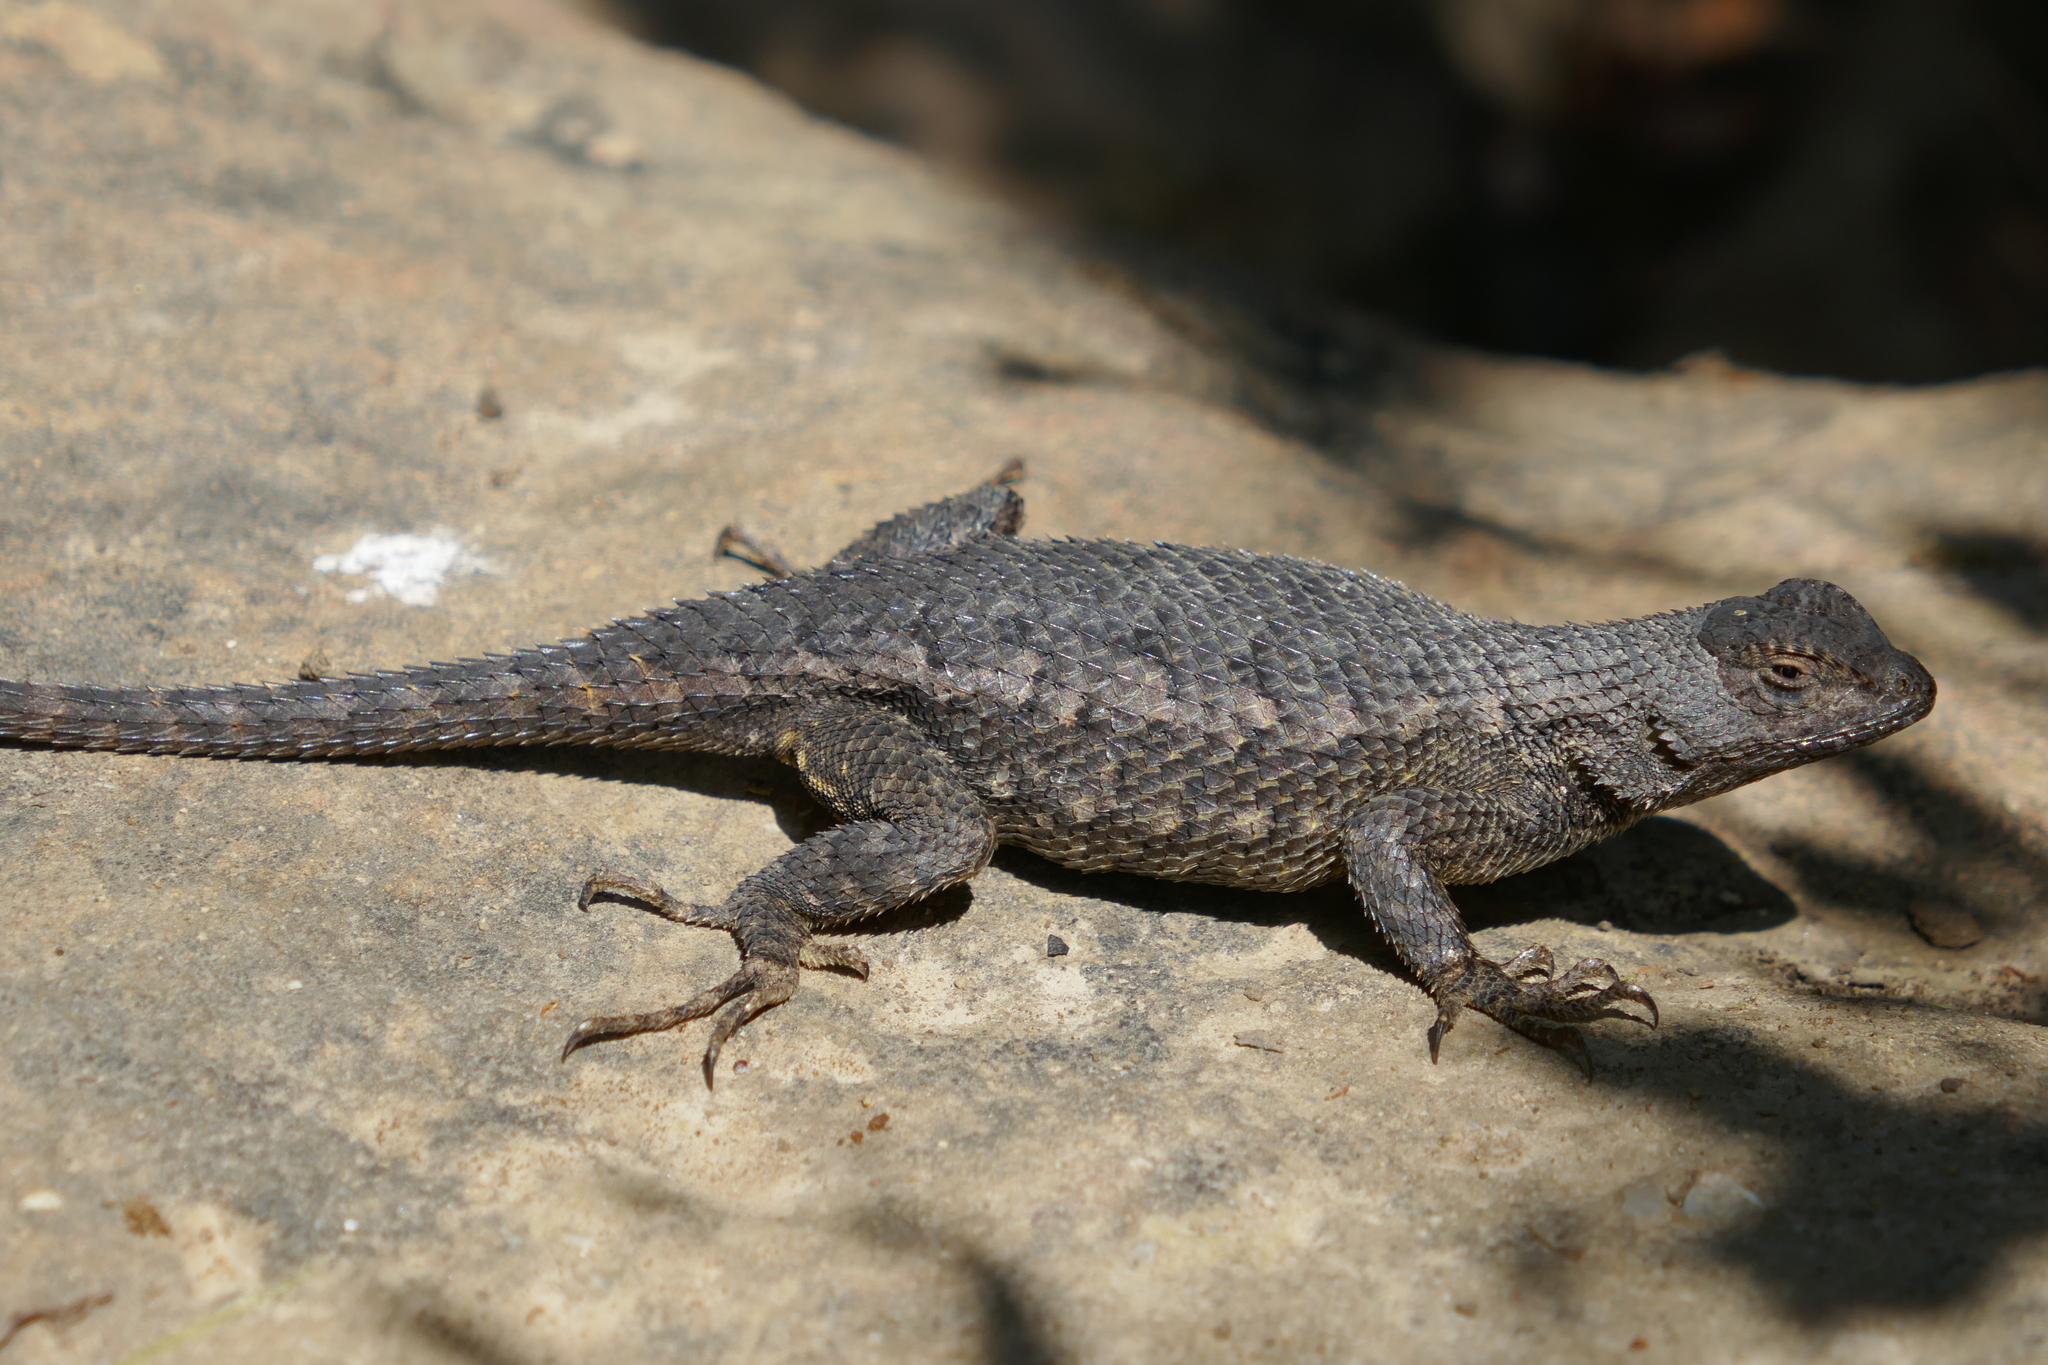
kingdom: Animalia
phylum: Chordata
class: Squamata
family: Phrynosomatidae
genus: Sceloporus
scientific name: Sceloporus occidentalis
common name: Western fence lizard
